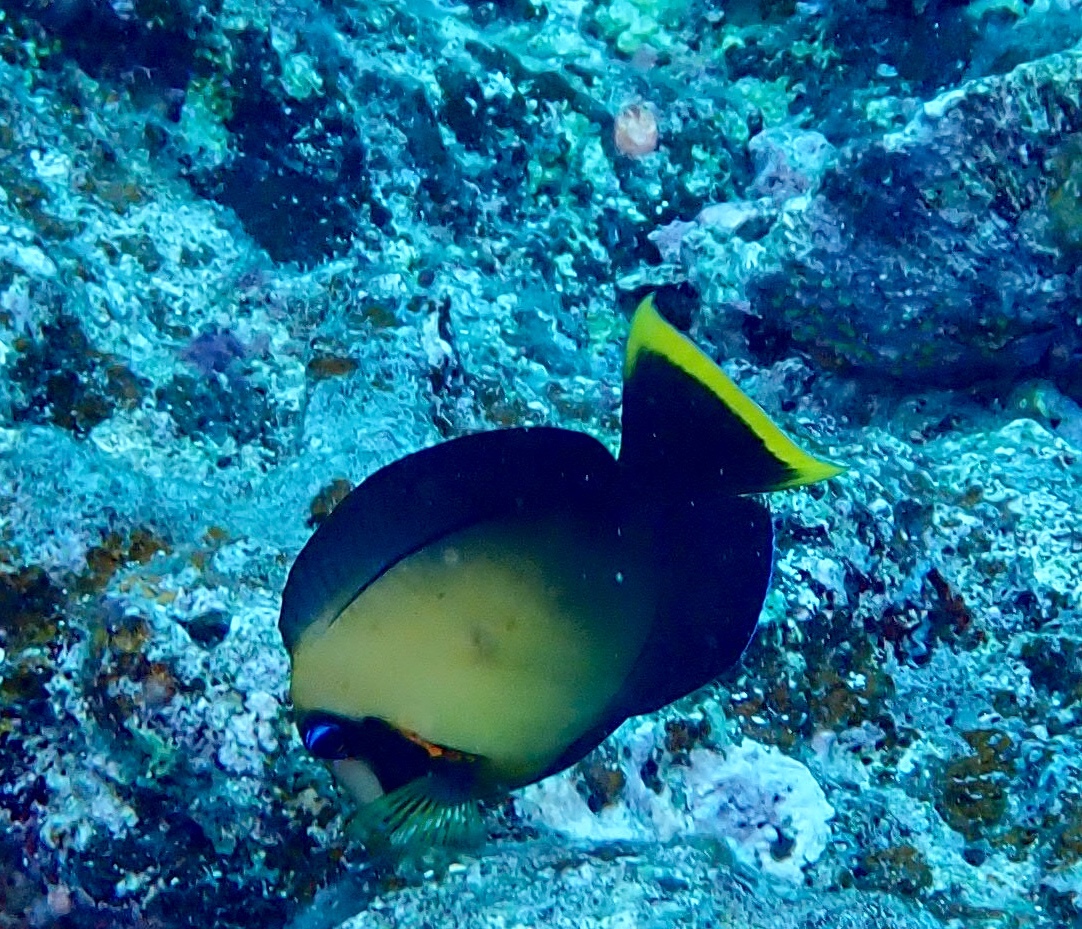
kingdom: Animalia
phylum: Chordata
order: Perciformes
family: Acanthuridae
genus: Acanthurus
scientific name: Acanthurus pyroferus
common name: Chocolate surgeonfish
